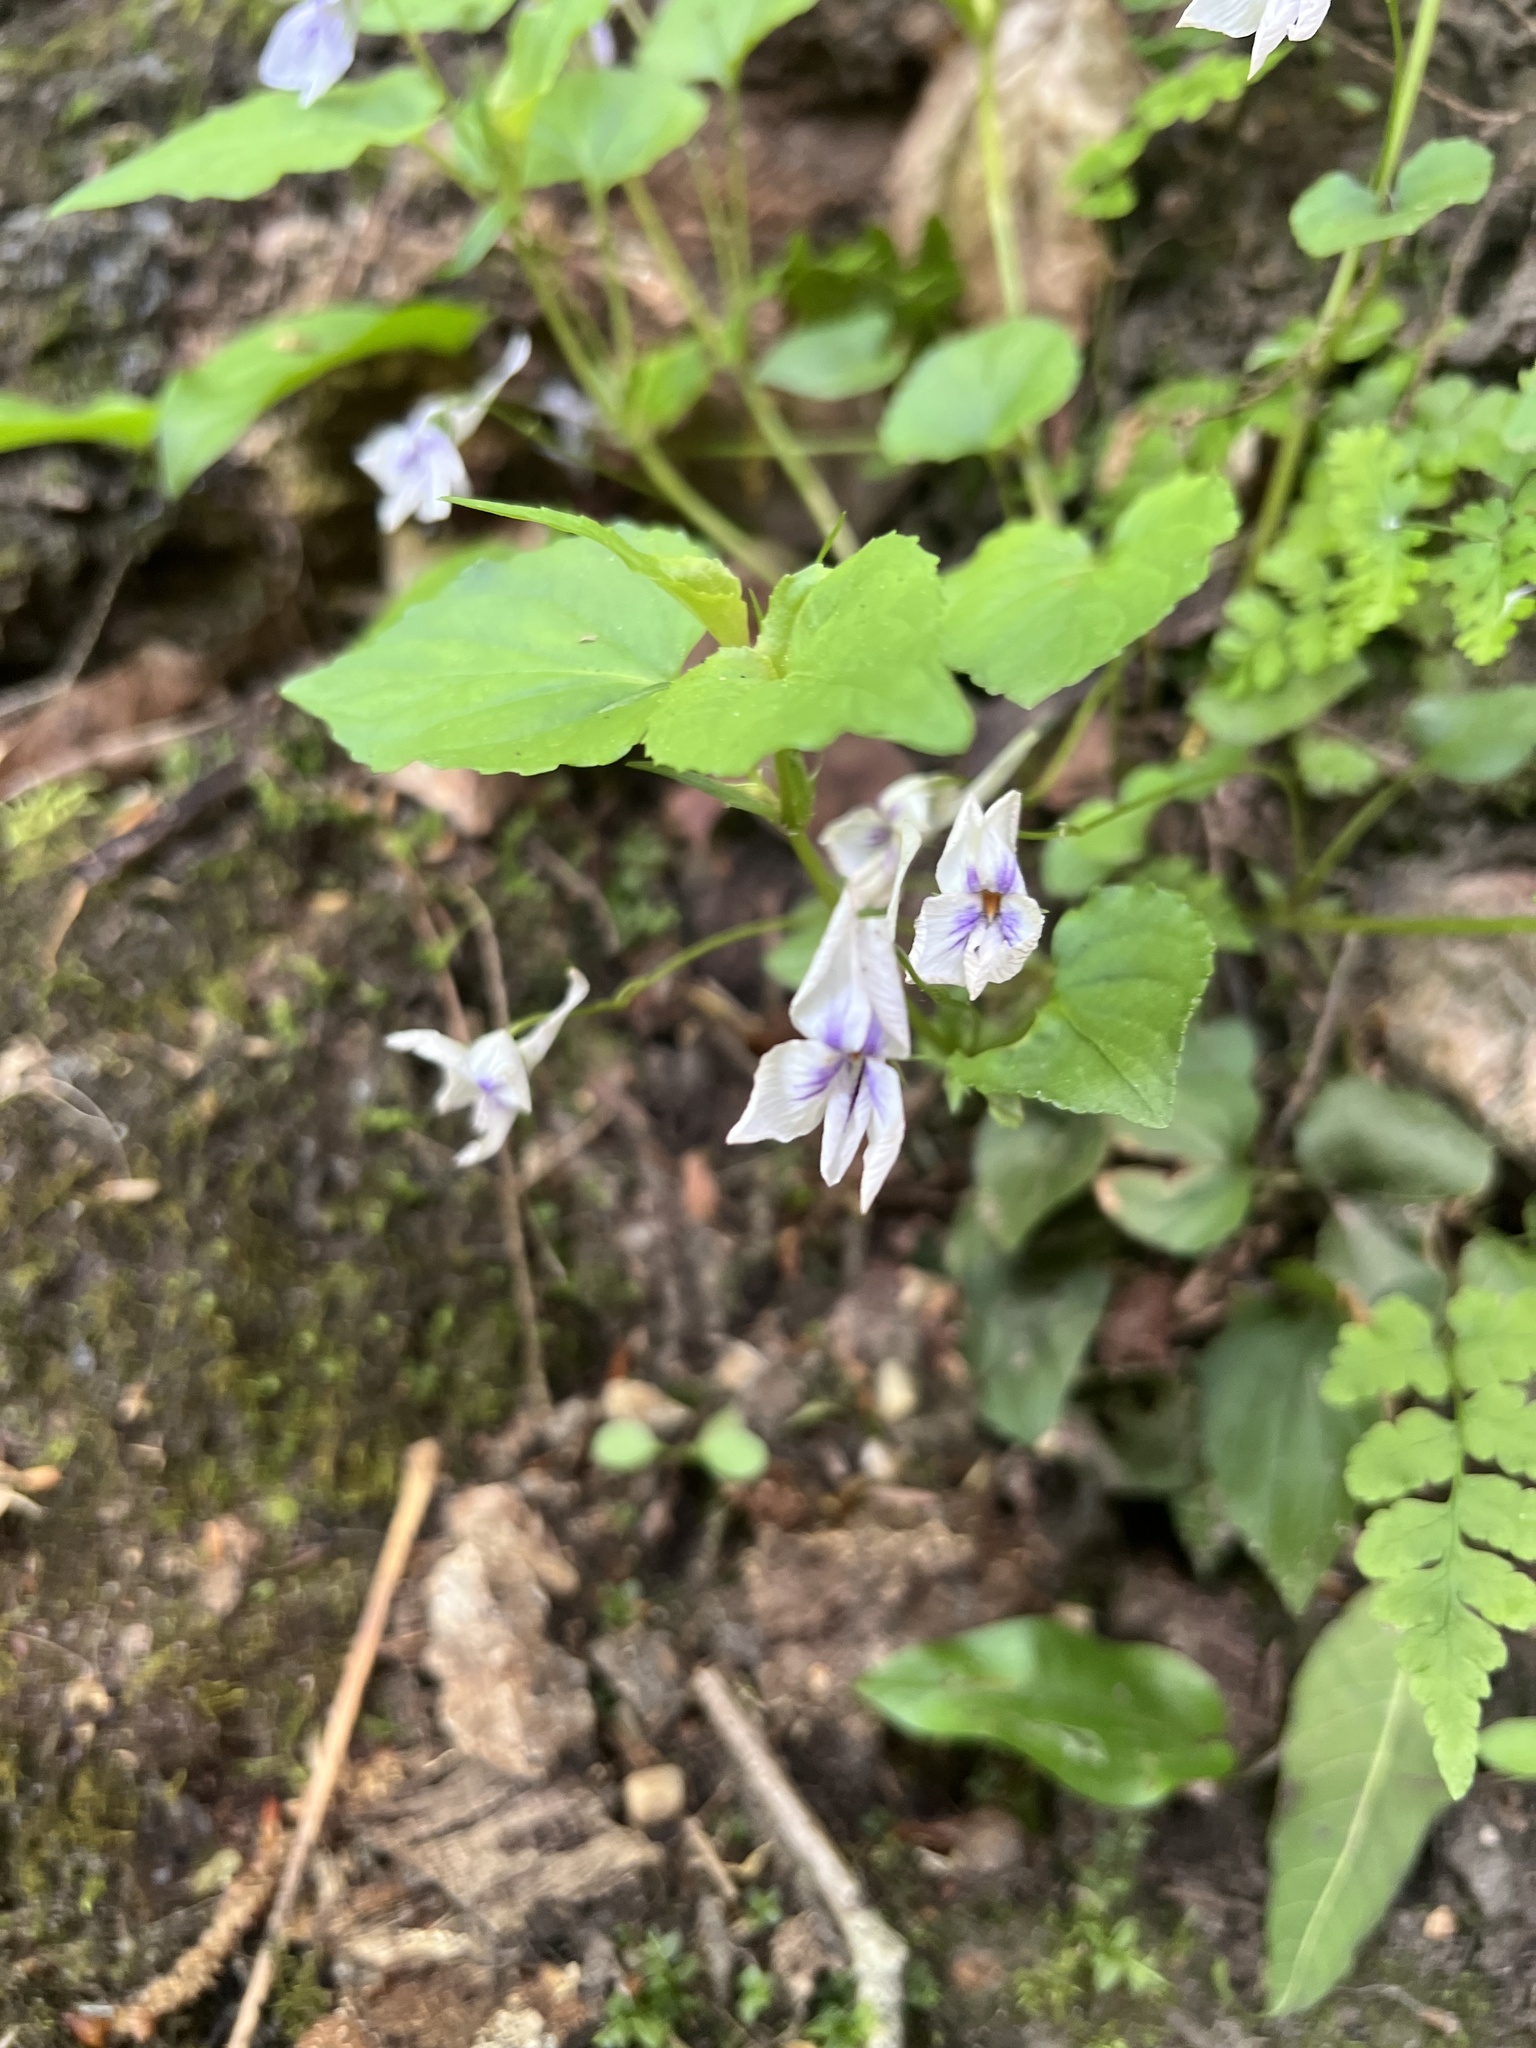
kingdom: Plantae
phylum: Tracheophyta
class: Magnoliopsida
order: Malpighiales
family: Violaceae
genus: Viola
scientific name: Viola rostrata
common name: Long-spur violet
